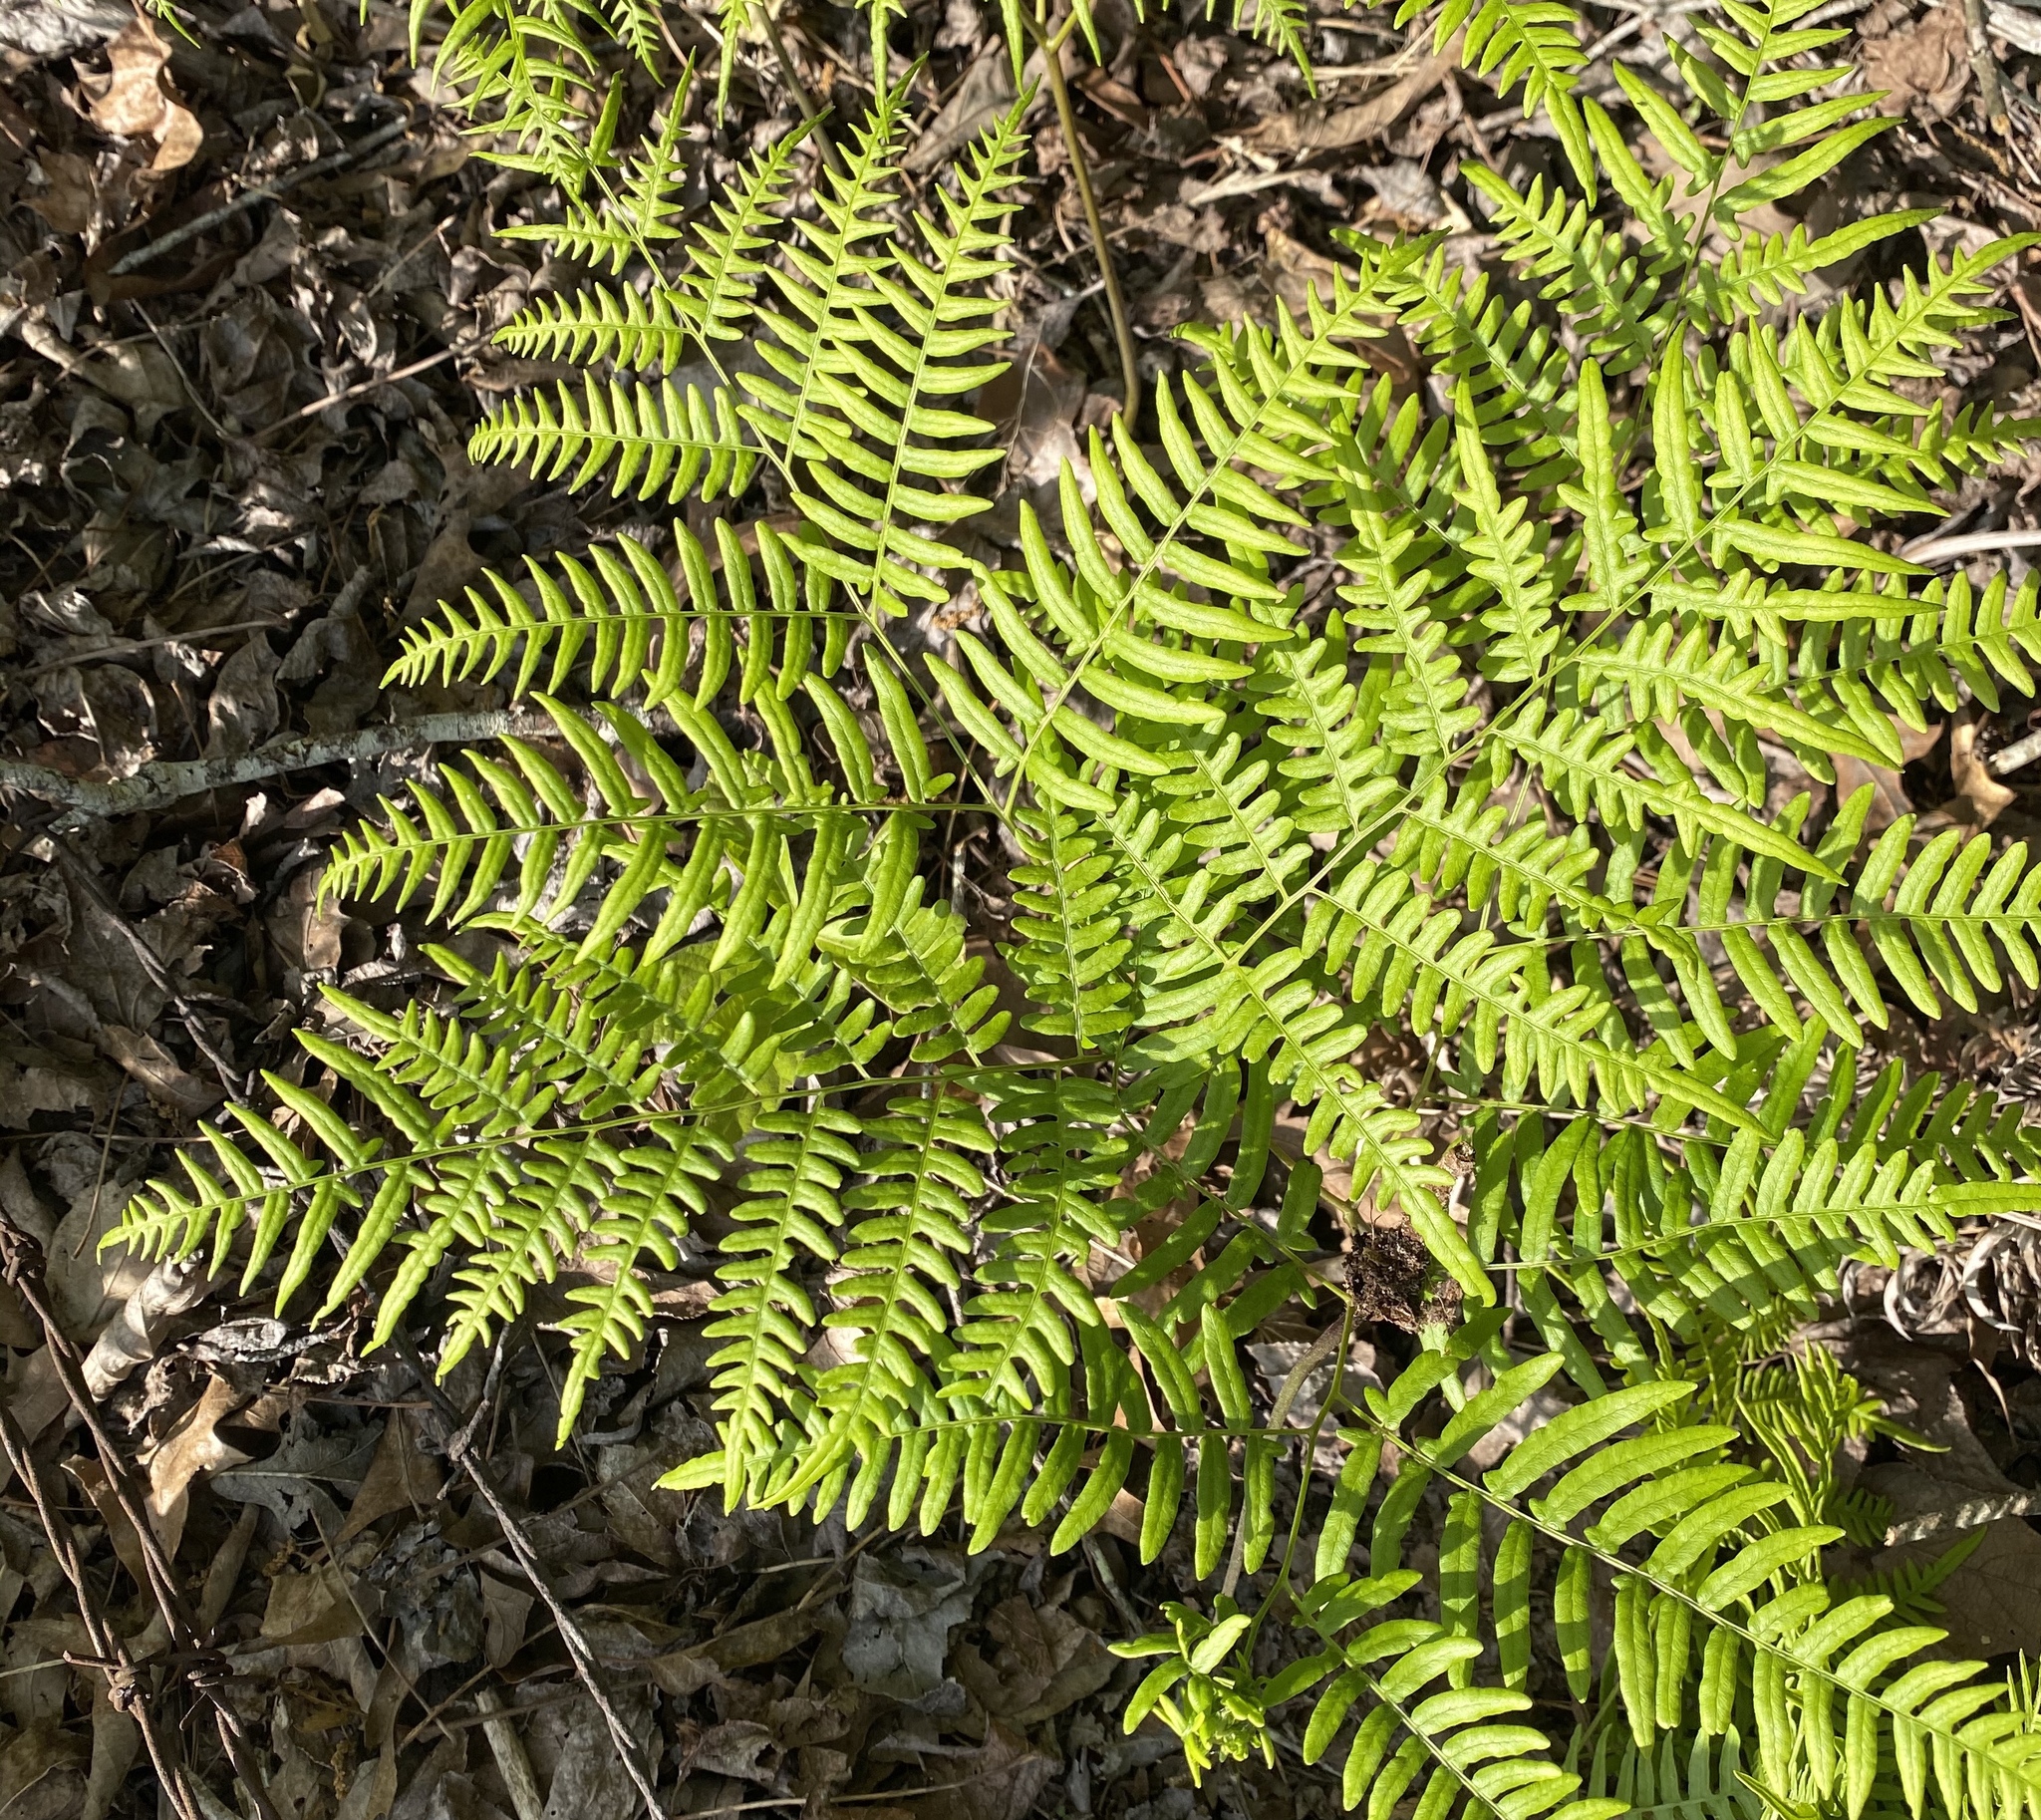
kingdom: Plantae
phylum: Tracheophyta
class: Polypodiopsida
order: Polypodiales
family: Dennstaedtiaceae
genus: Pteridium
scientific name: Pteridium aquilinum
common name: Bracken
